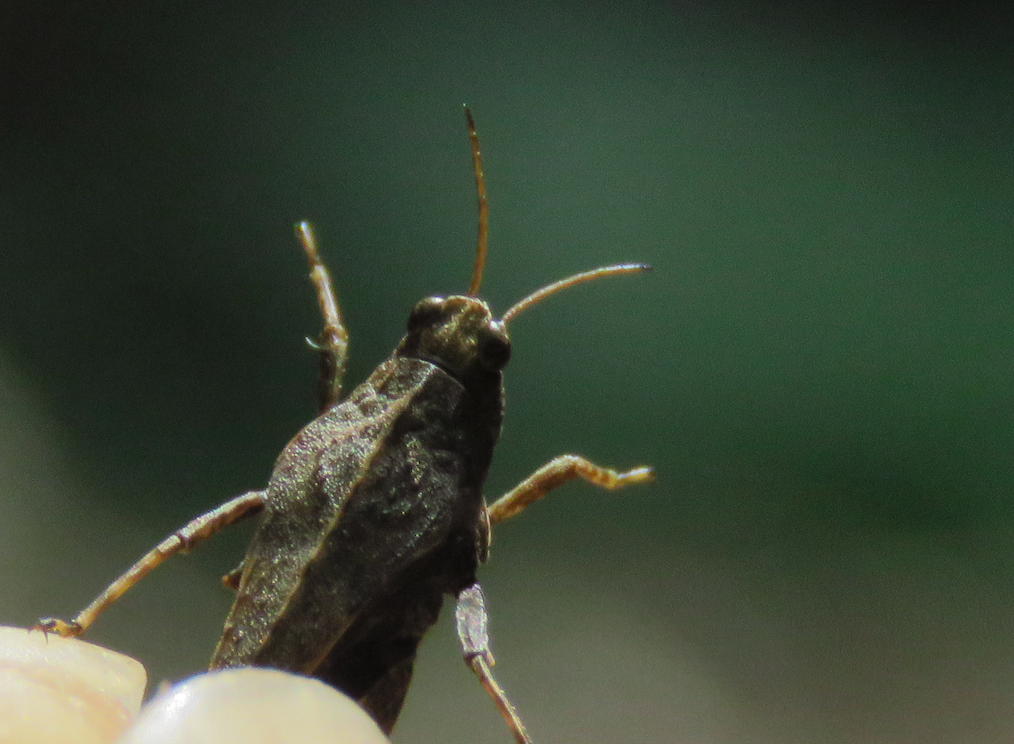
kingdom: Animalia
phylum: Arthropoda
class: Insecta
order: Orthoptera
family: Tetrigidae
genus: Tetrix
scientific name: Tetrix subulata
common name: Slender ground-hopper
